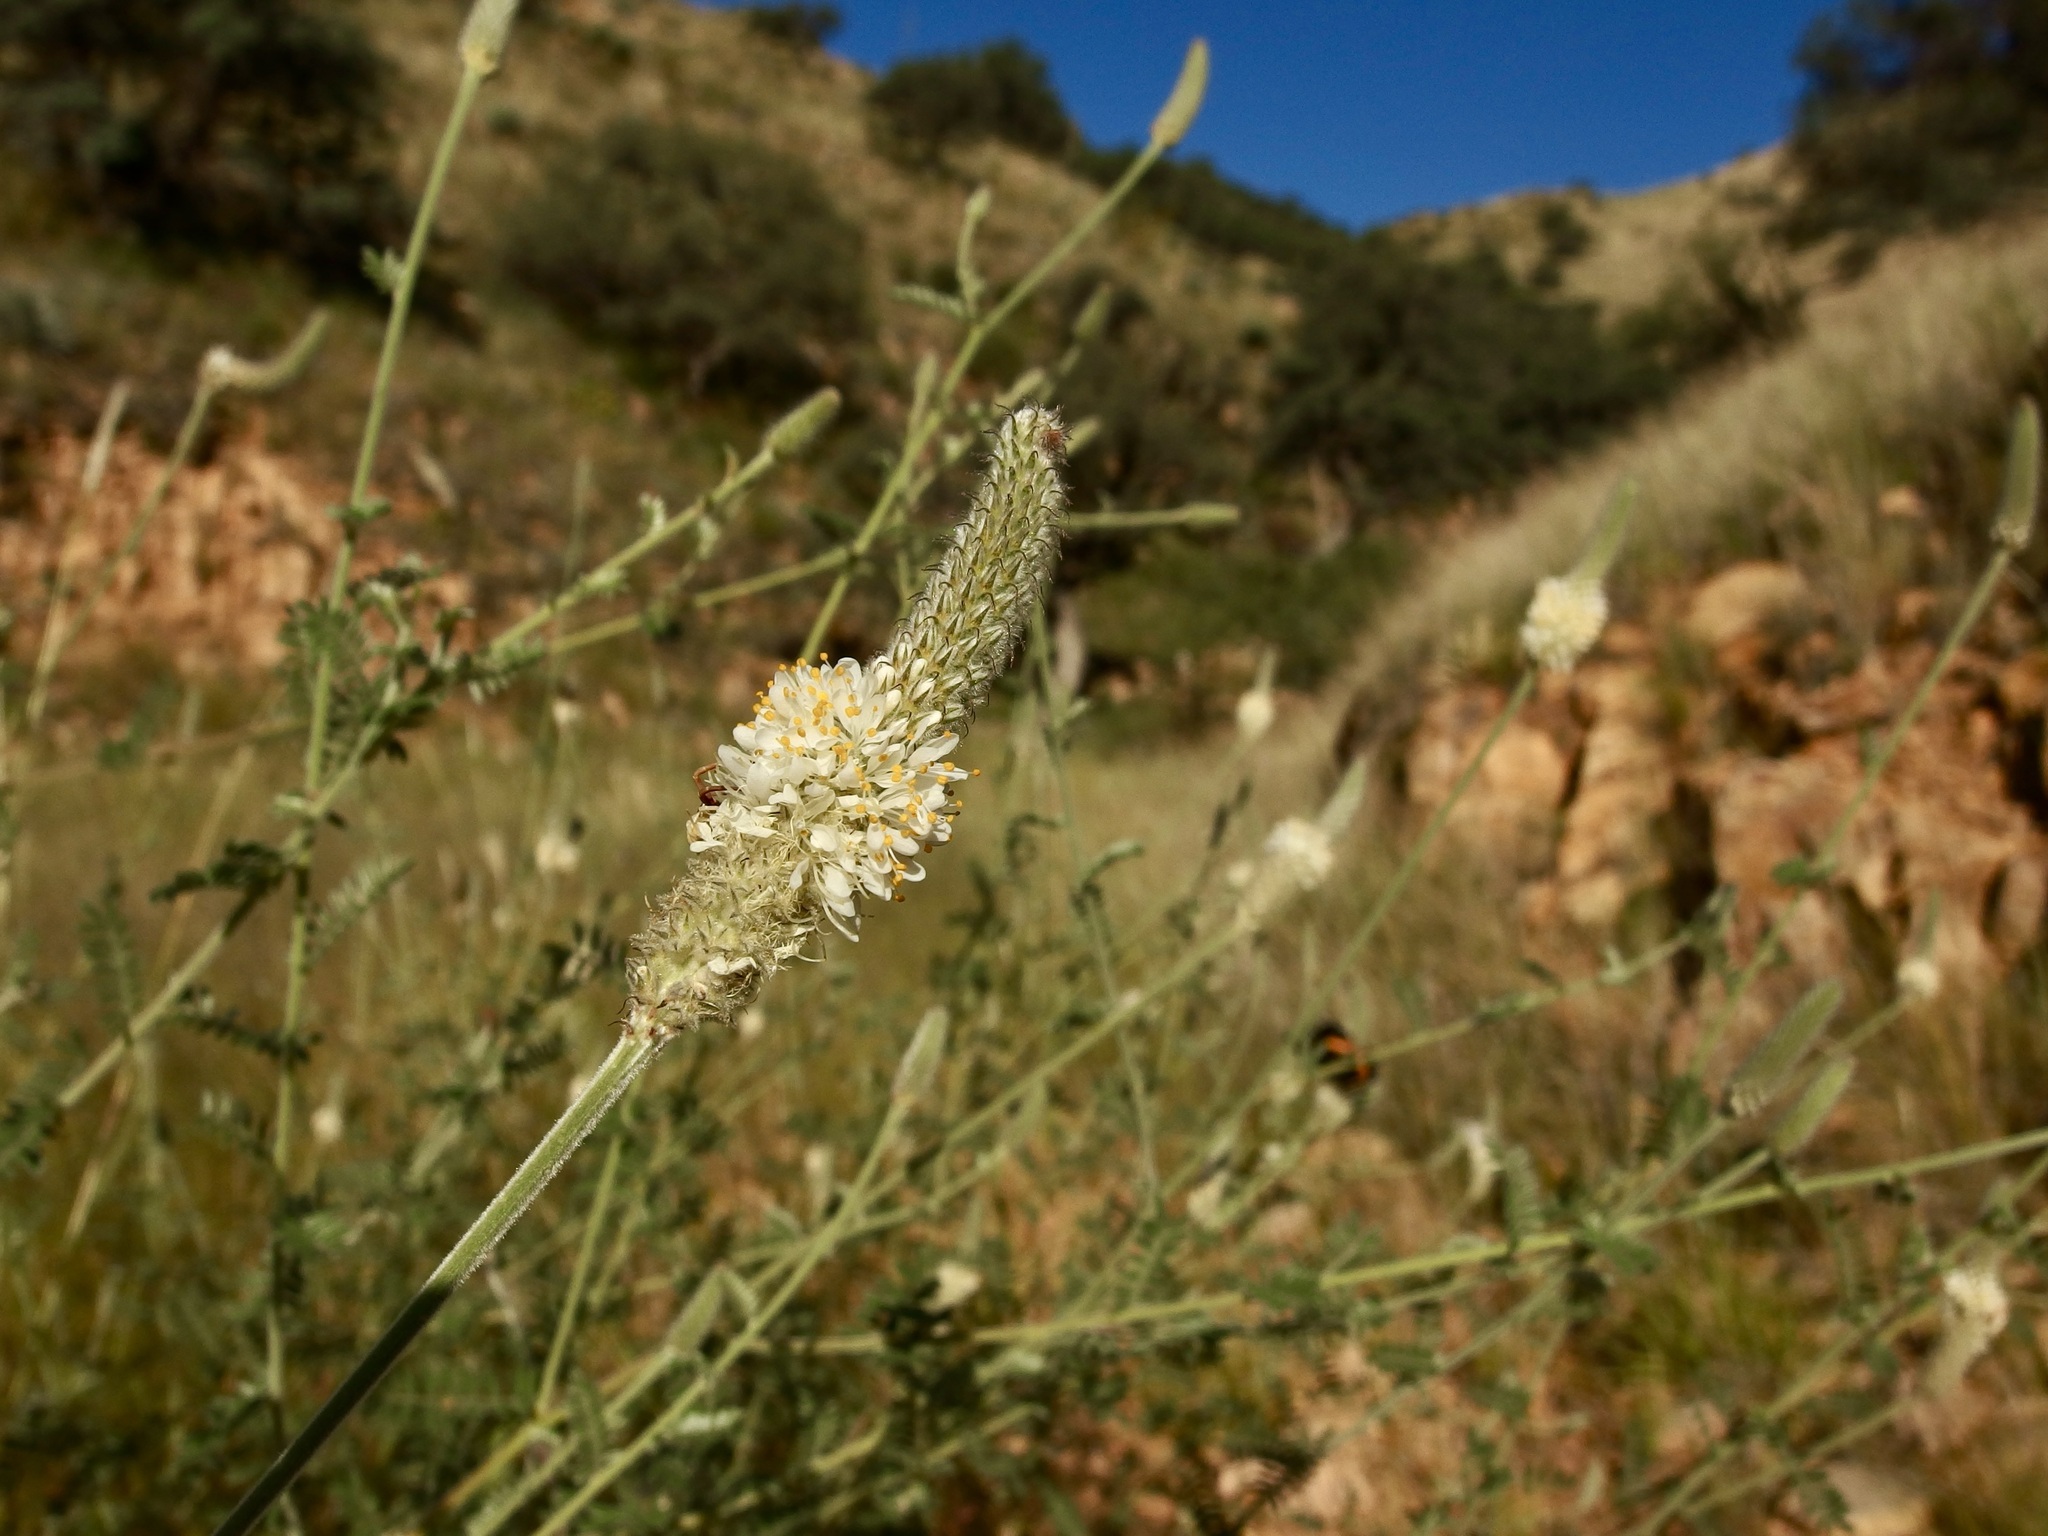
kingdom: Plantae
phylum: Tracheophyta
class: Magnoliopsida
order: Fabales
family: Fabaceae
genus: Dalea
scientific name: Dalea albiflora
